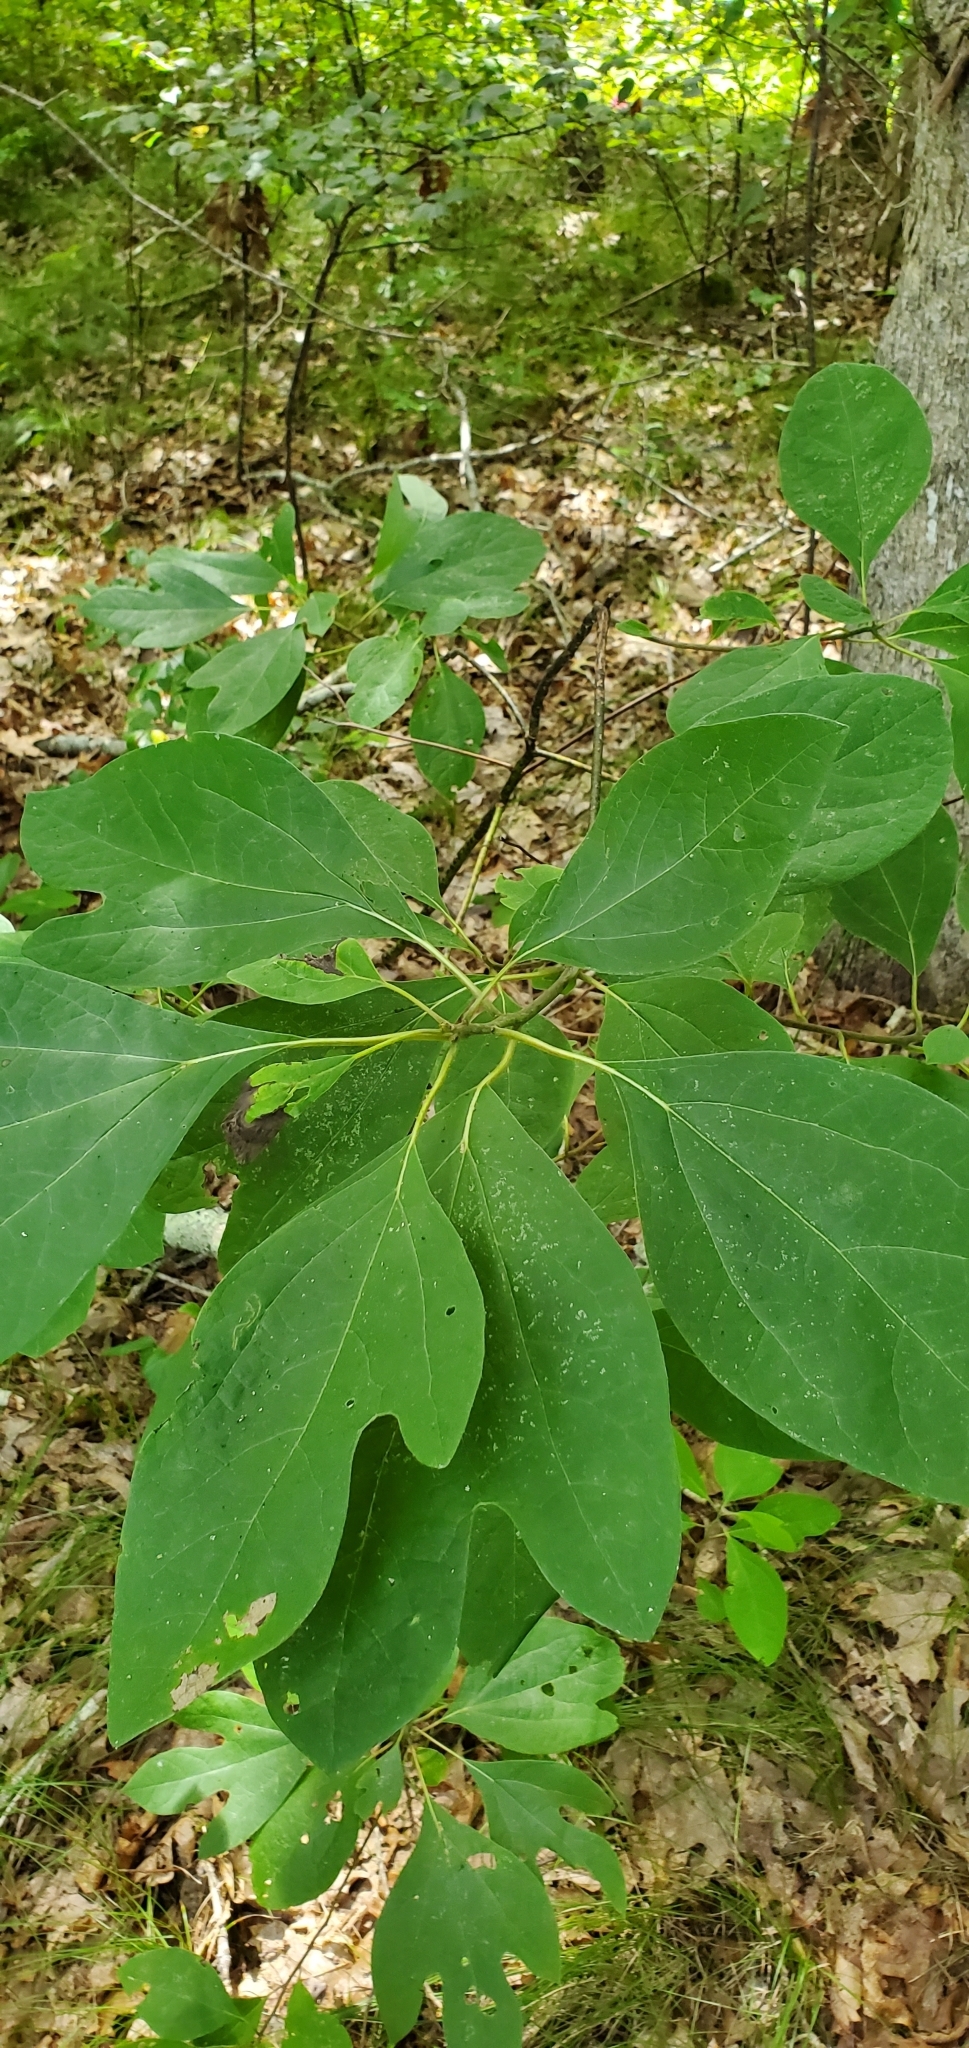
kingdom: Plantae
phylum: Tracheophyta
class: Magnoliopsida
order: Laurales
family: Lauraceae
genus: Sassafras
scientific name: Sassafras albidum
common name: Sassafras
